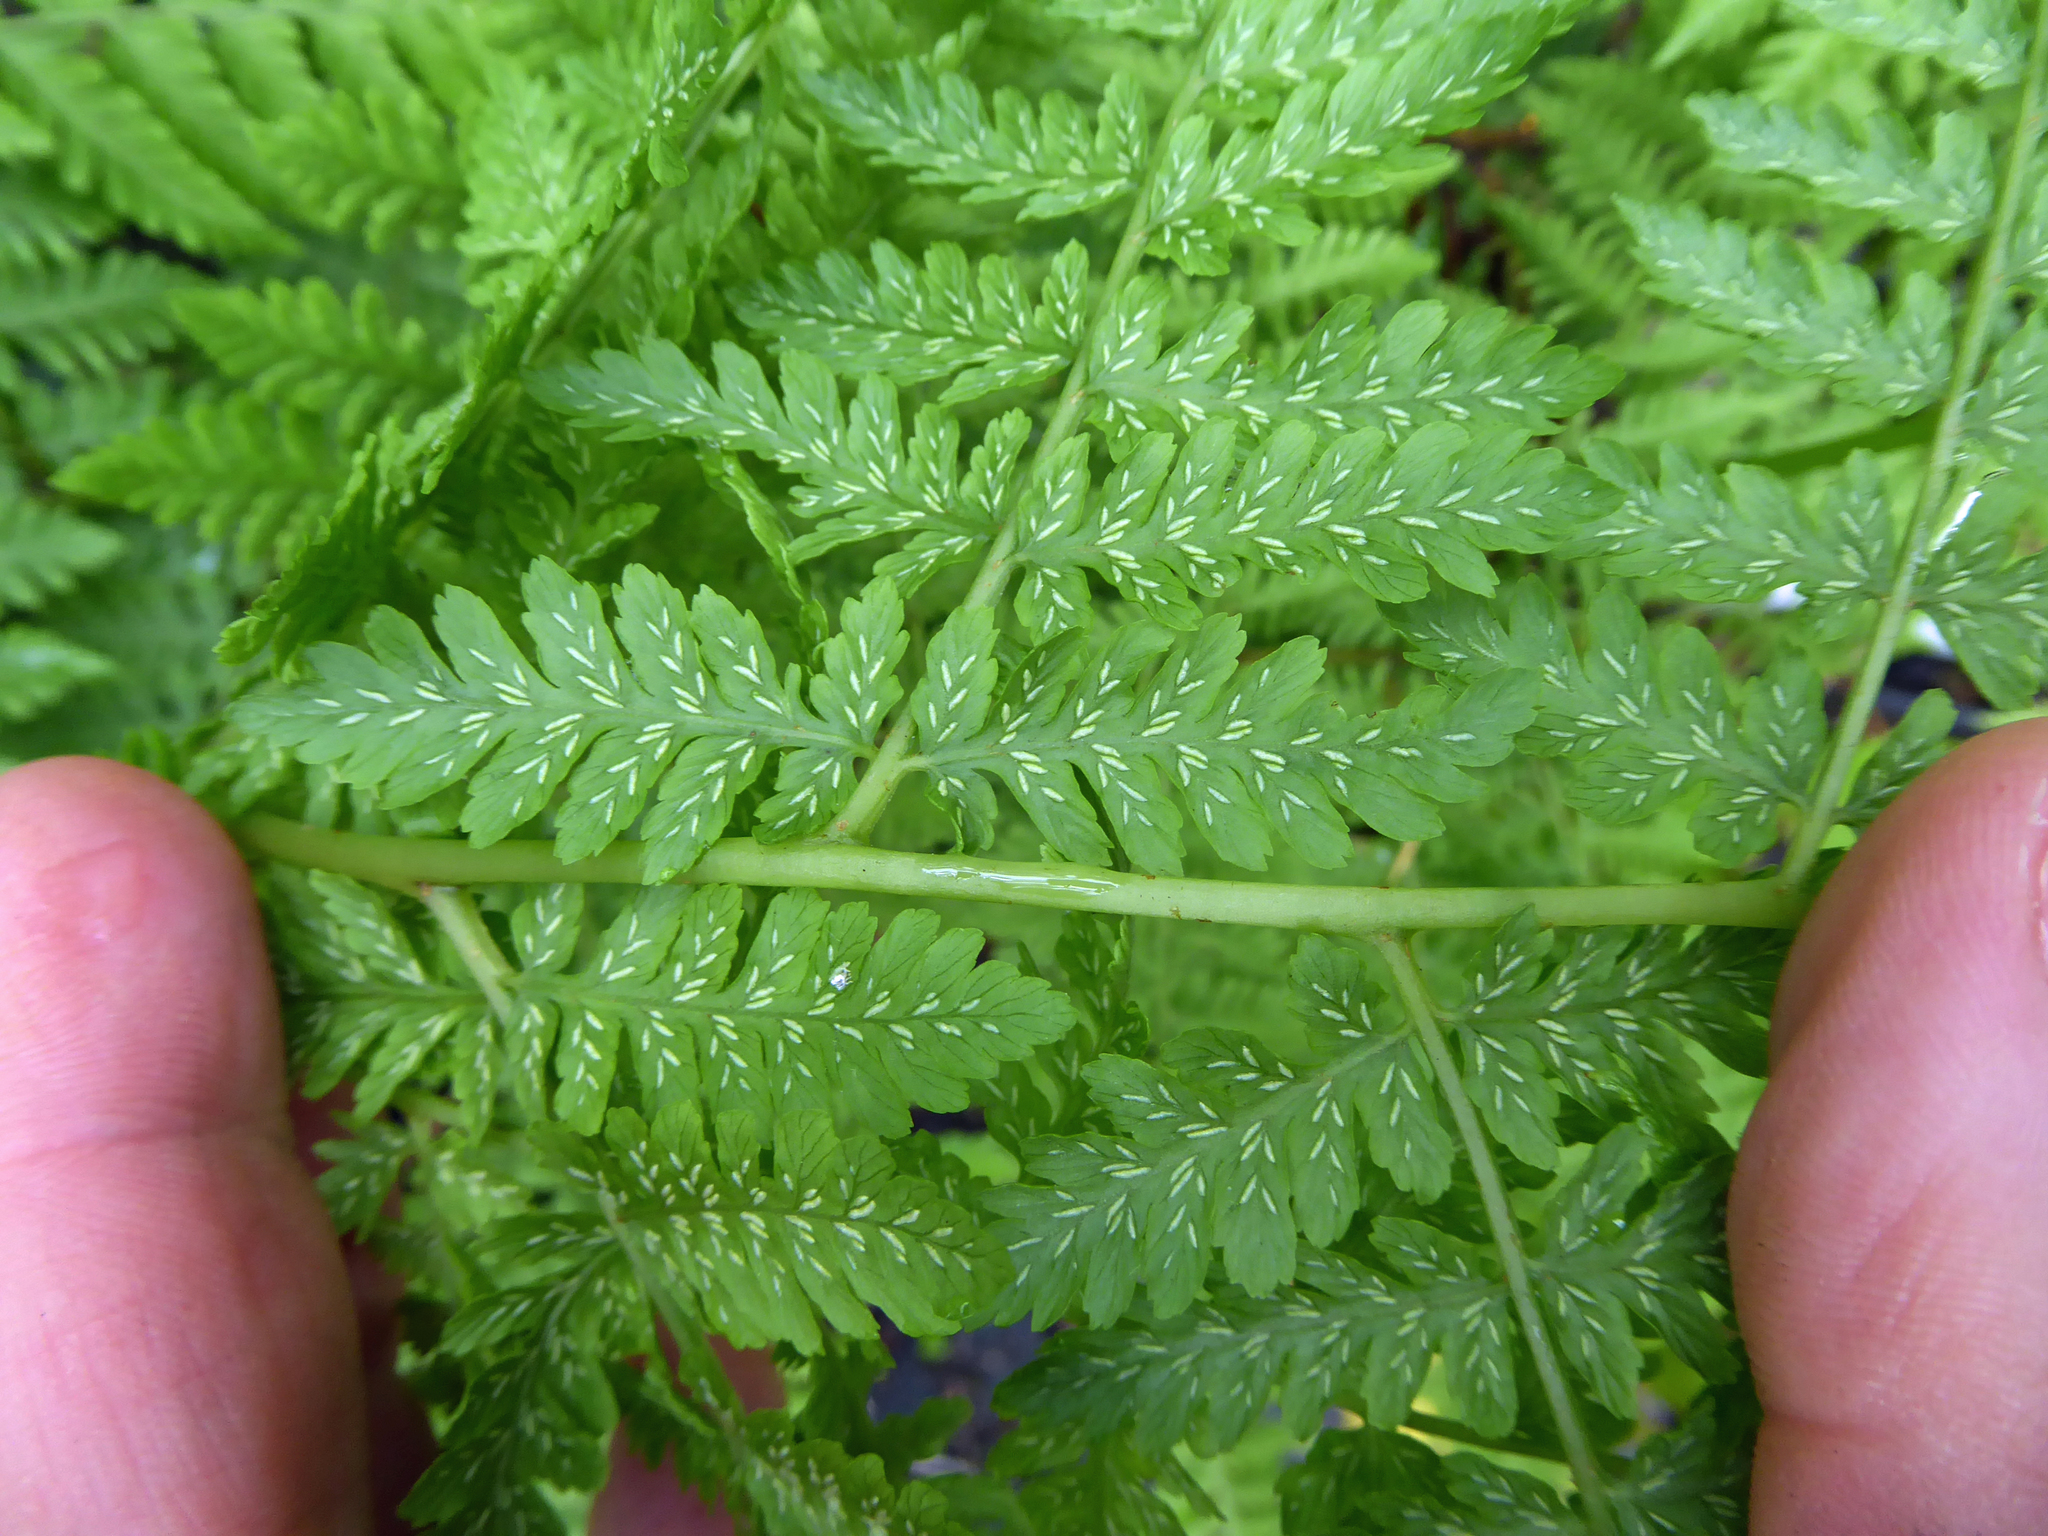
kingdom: Plantae
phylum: Tracheophyta
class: Polypodiopsida
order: Polypodiales
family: Athyriaceae
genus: Diplazium
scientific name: Diplazium australe
